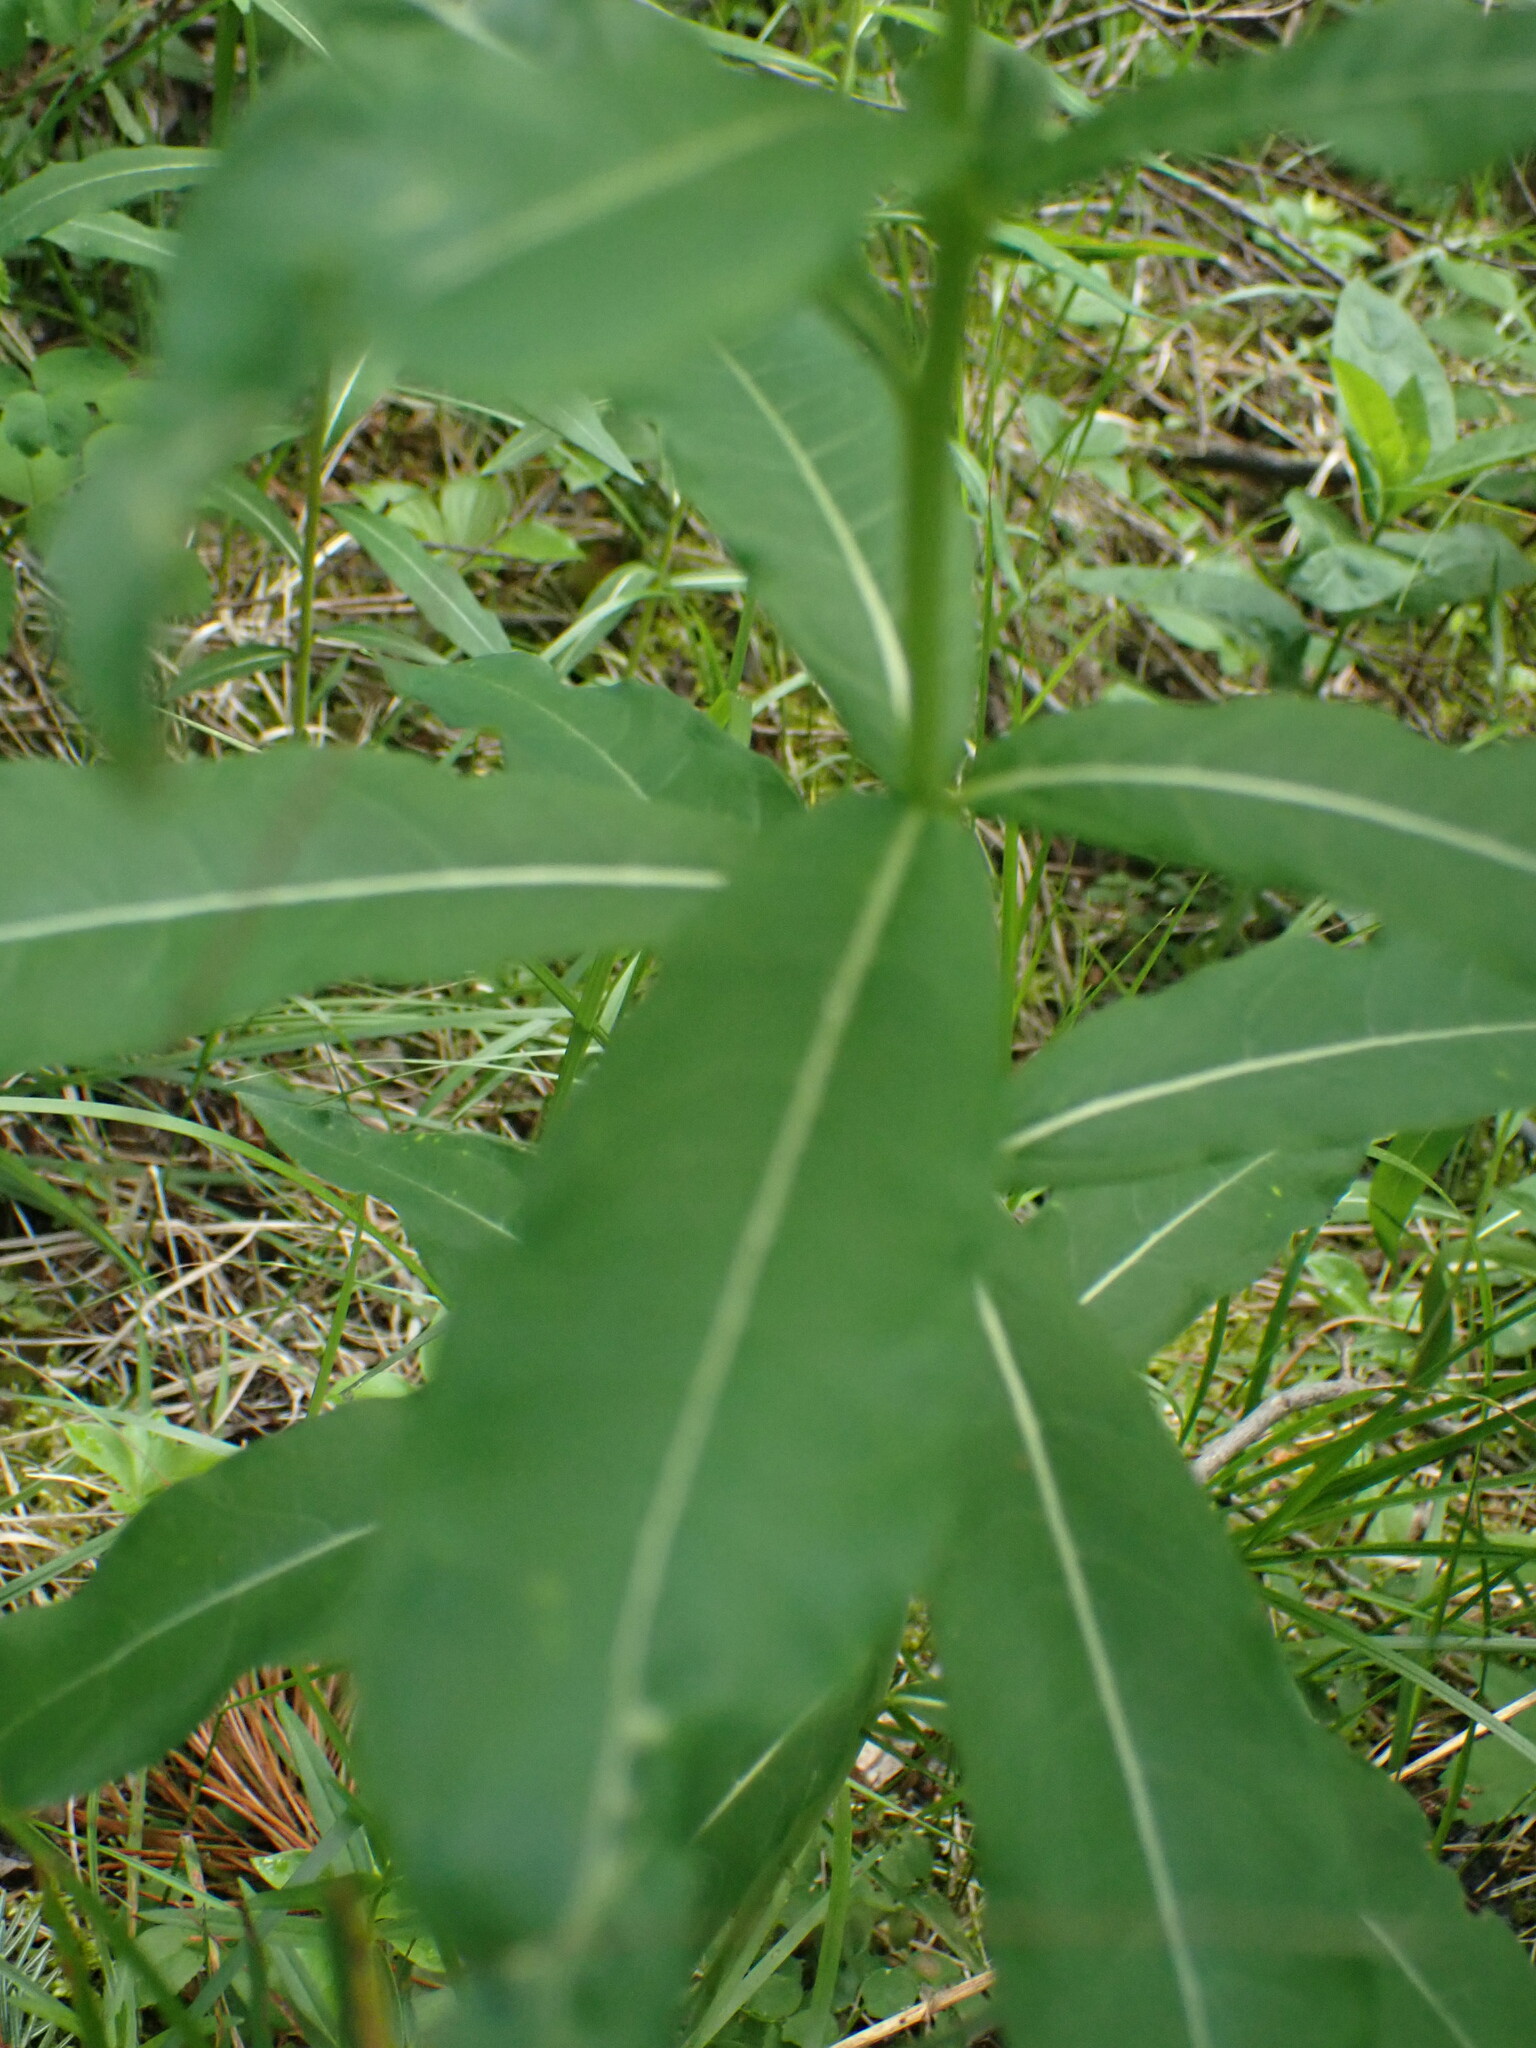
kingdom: Plantae
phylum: Tracheophyta
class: Magnoliopsida
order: Myrtales
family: Onagraceae
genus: Chamaenerion
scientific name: Chamaenerion angustifolium
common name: Fireweed
